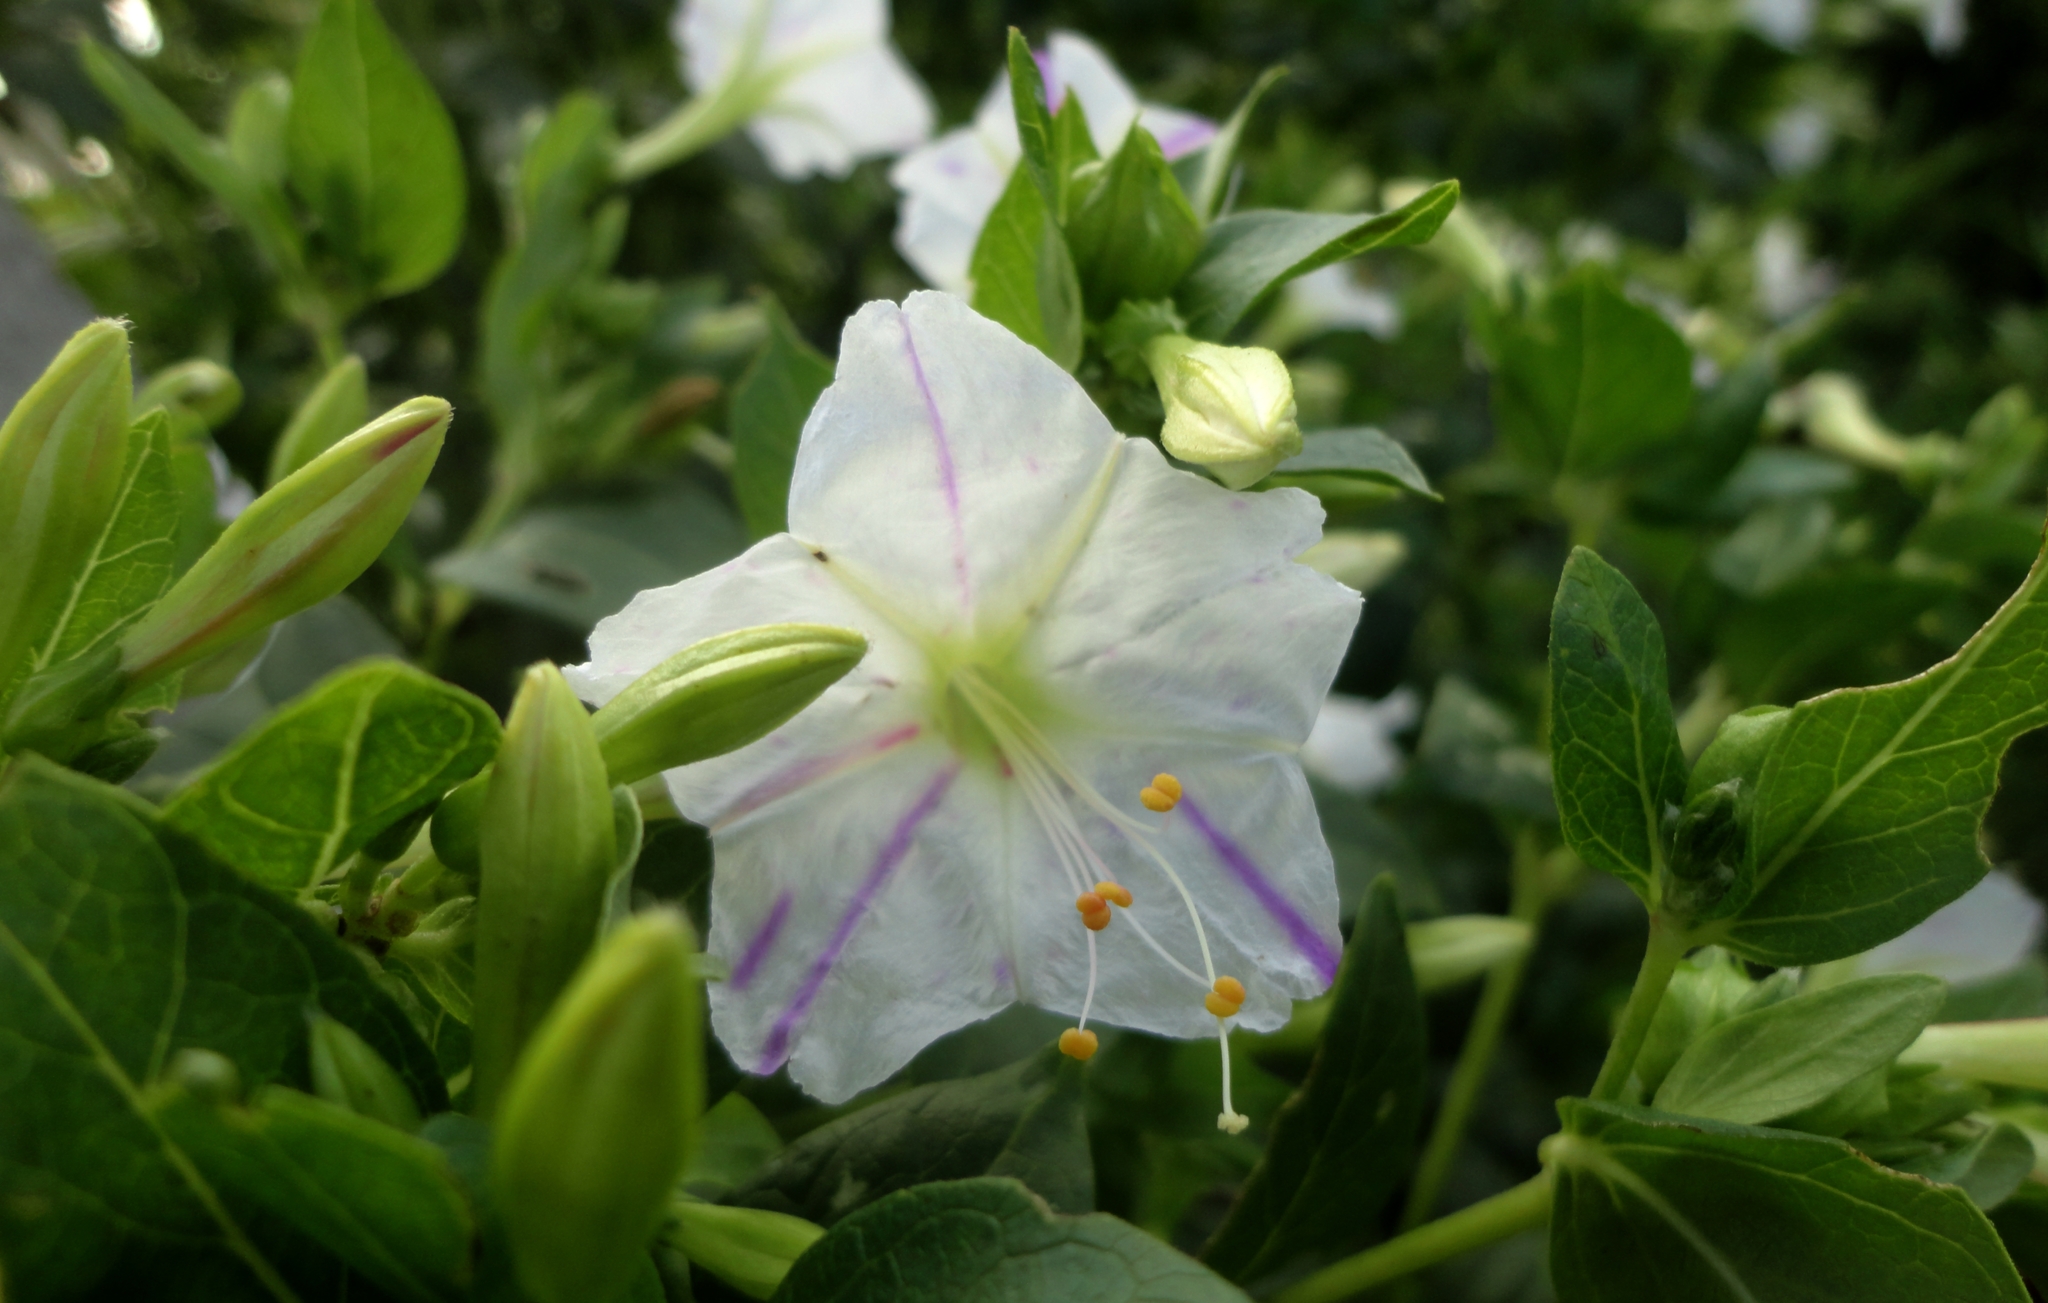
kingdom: Plantae
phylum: Tracheophyta
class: Magnoliopsida
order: Caryophyllales
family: Nyctaginaceae
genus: Mirabilis
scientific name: Mirabilis jalapa
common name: Marvel-of-peru
